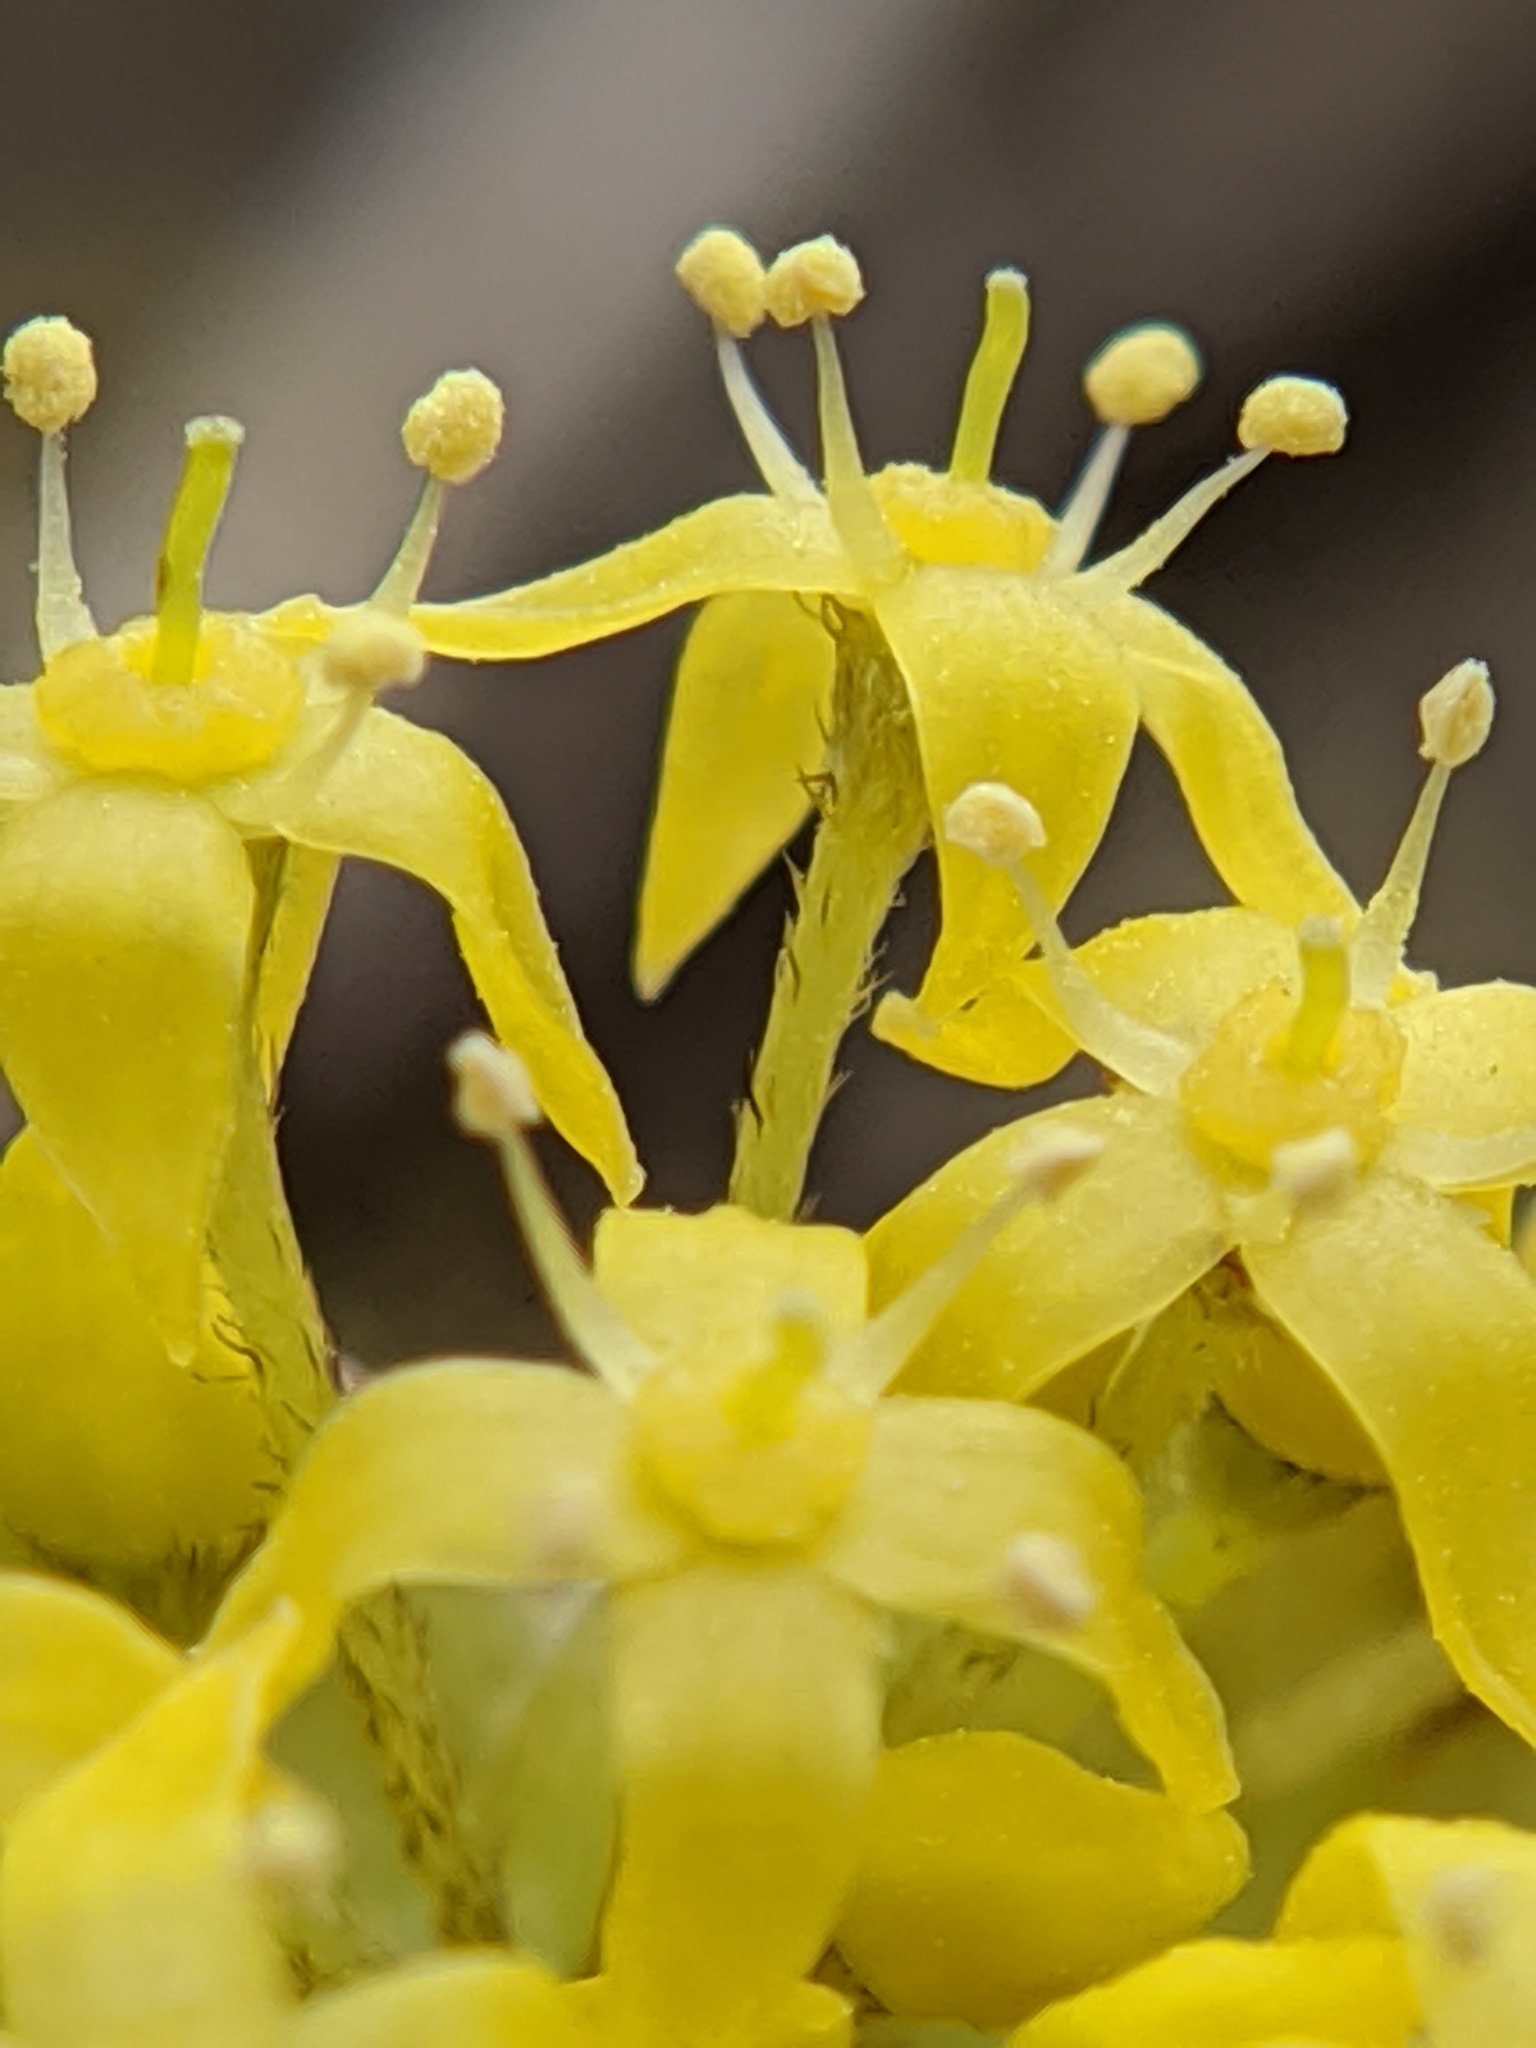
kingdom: Plantae
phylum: Tracheophyta
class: Magnoliopsida
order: Cornales
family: Cornaceae
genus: Cornus
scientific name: Cornus mas
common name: Cornelian-cherry
